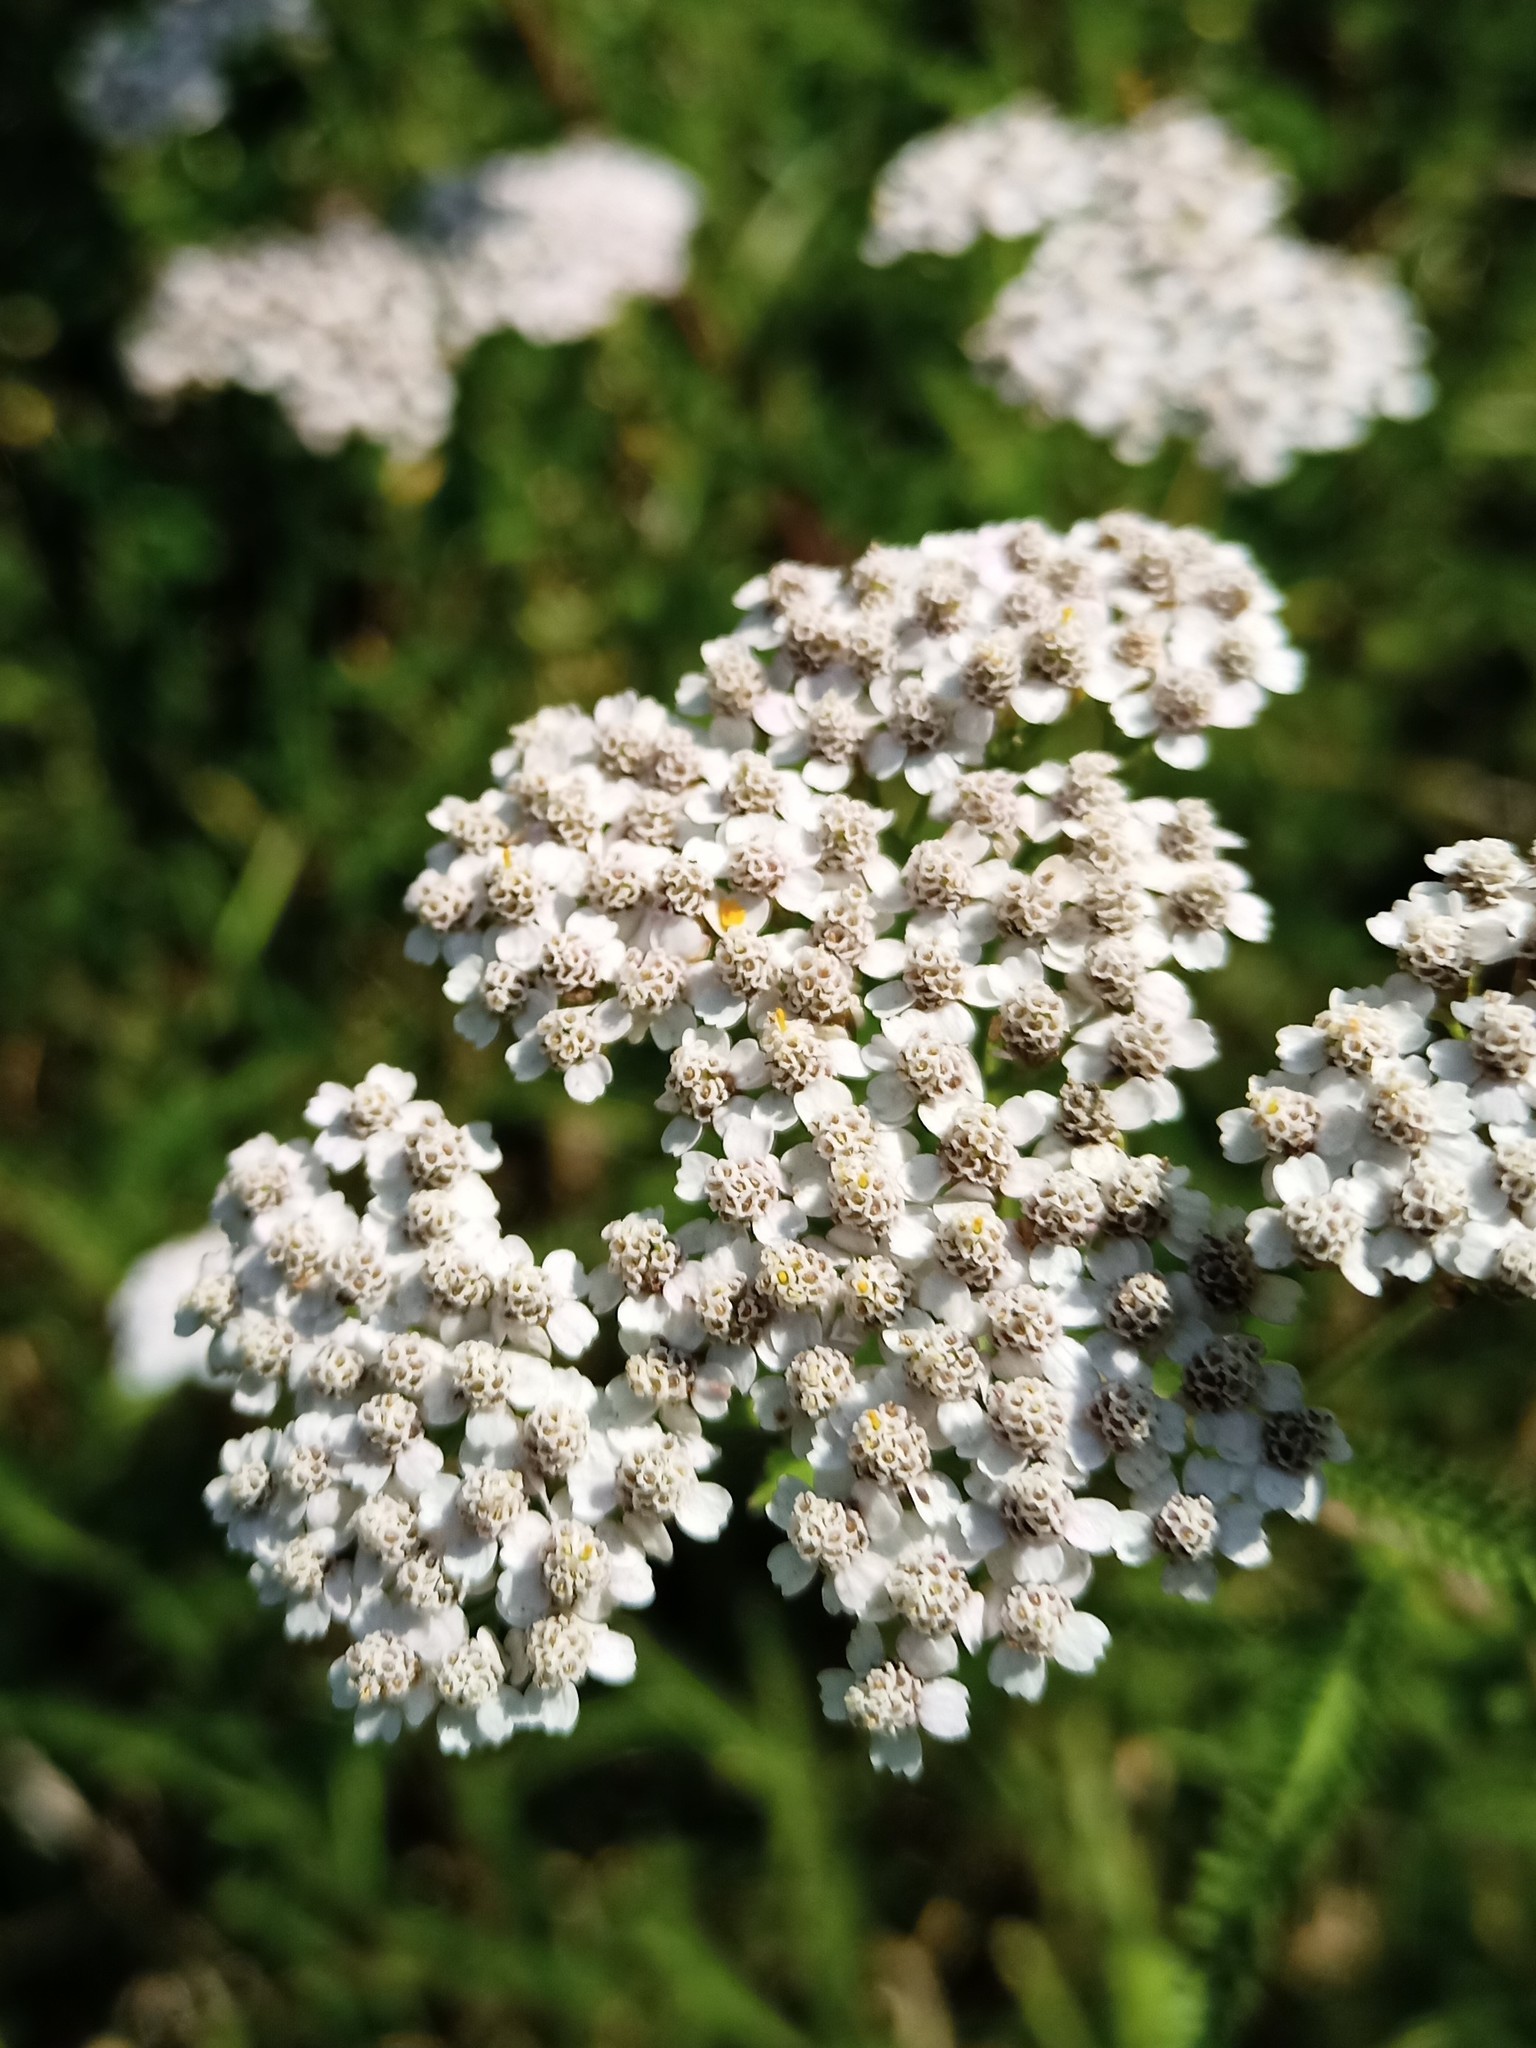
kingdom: Plantae
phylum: Tracheophyta
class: Magnoliopsida
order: Asterales
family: Asteraceae
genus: Achillea
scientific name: Achillea millefolium
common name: Yarrow
